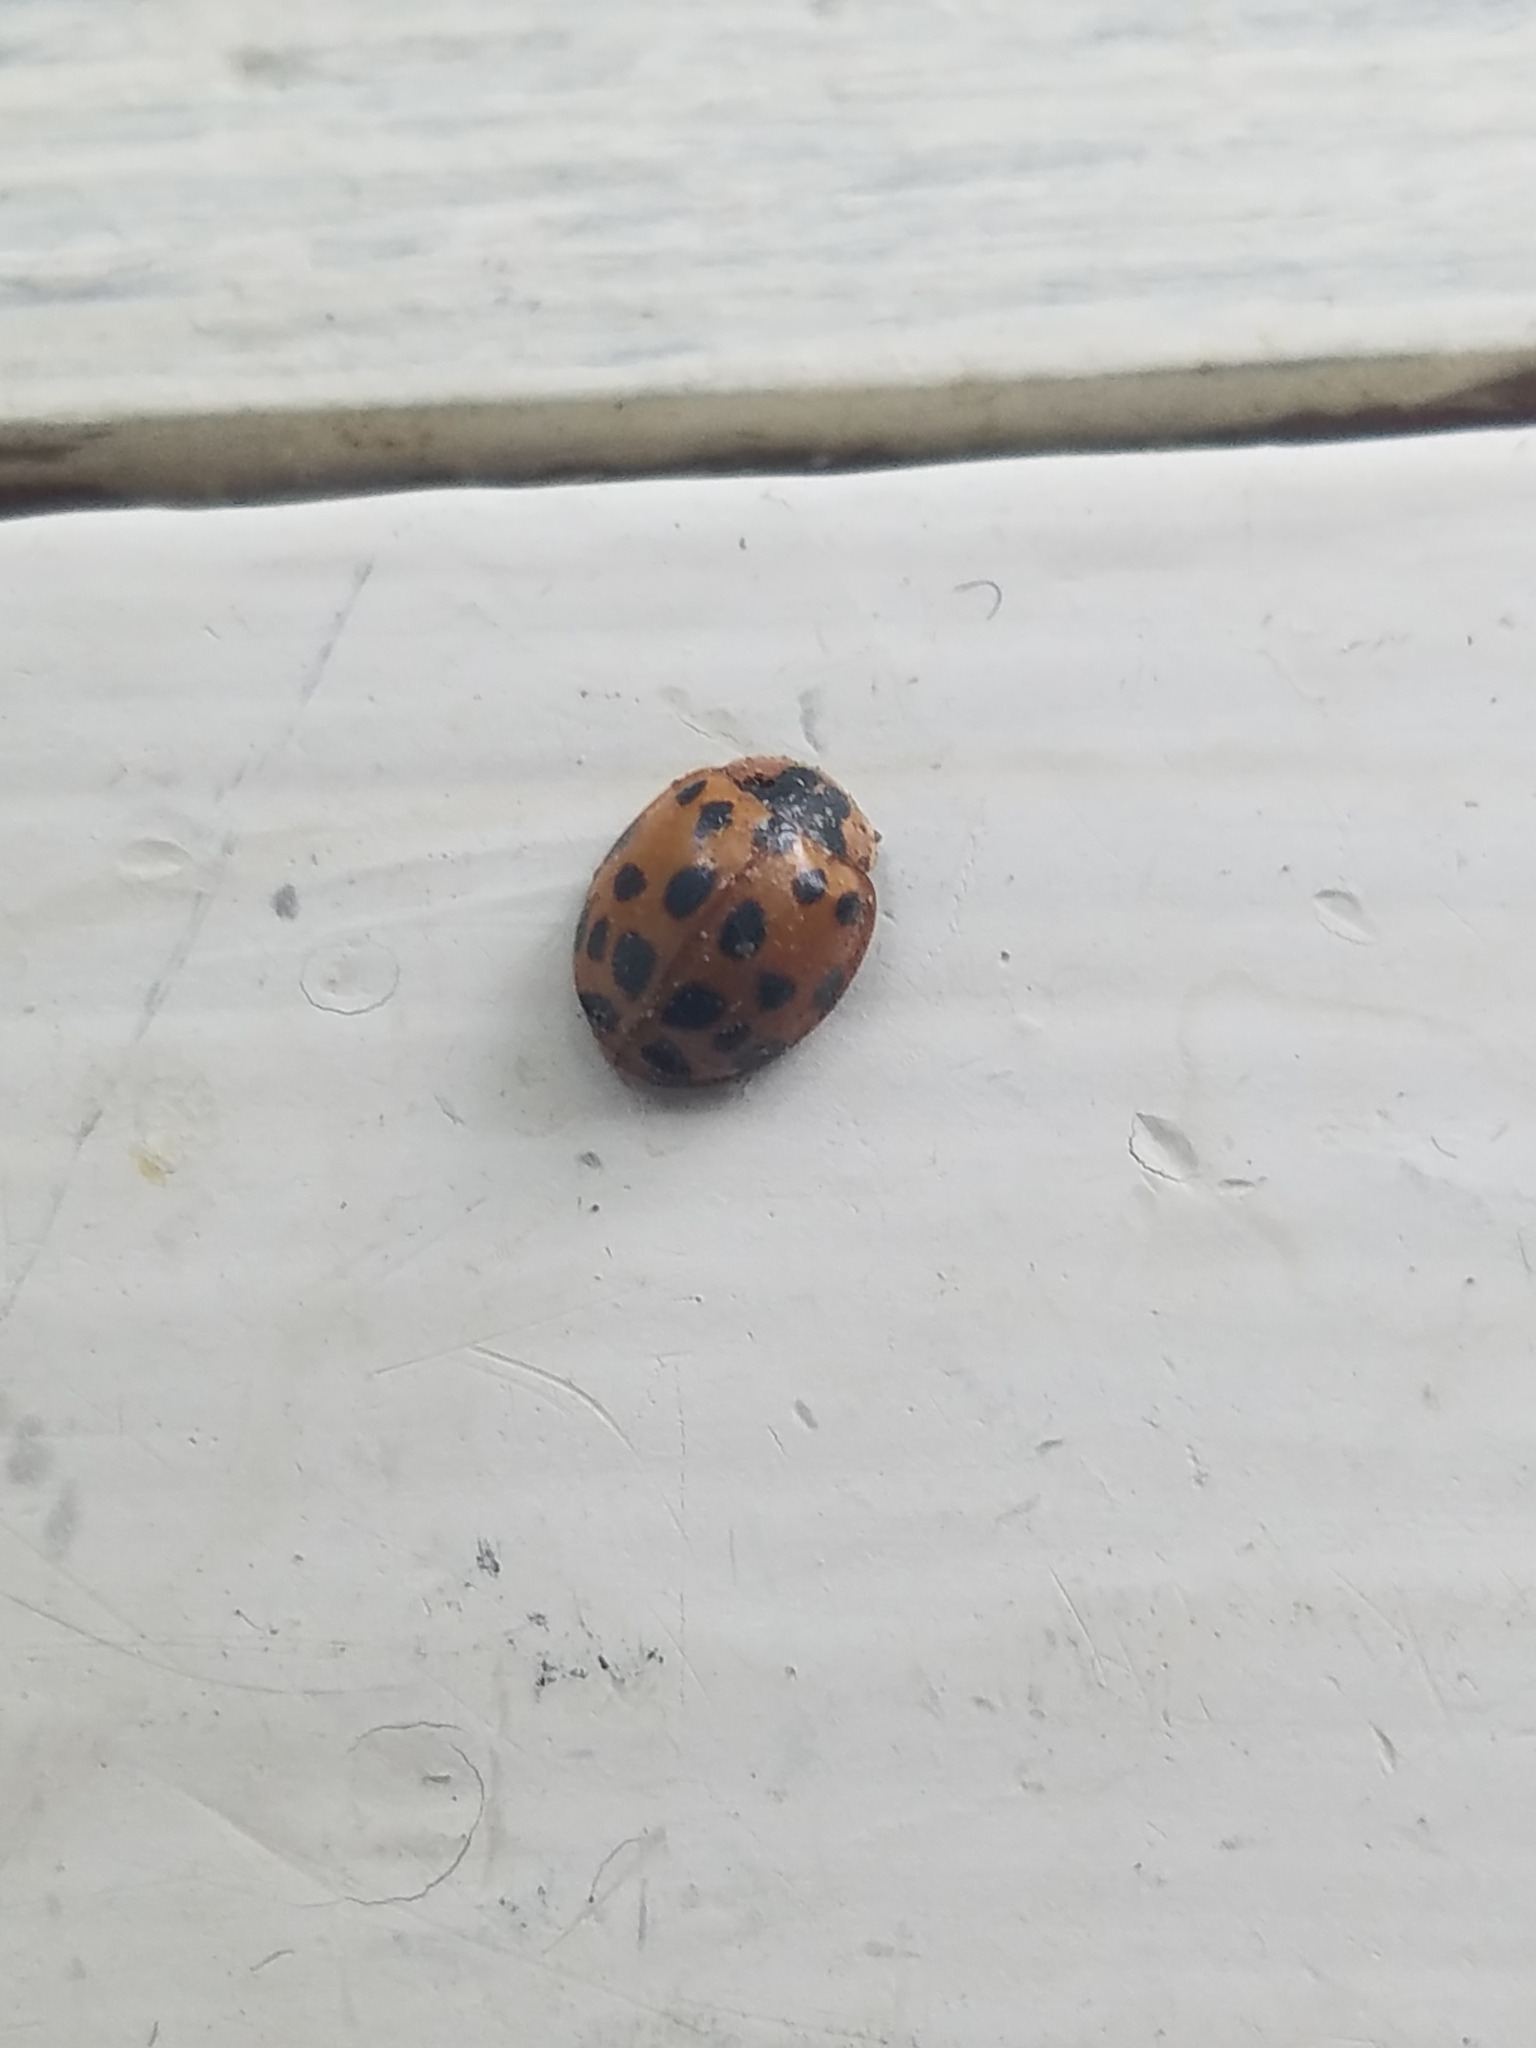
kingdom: Animalia
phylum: Arthropoda
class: Insecta
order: Coleoptera
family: Coccinellidae
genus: Harmonia
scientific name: Harmonia axyridis
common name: Harlequin ladybird
